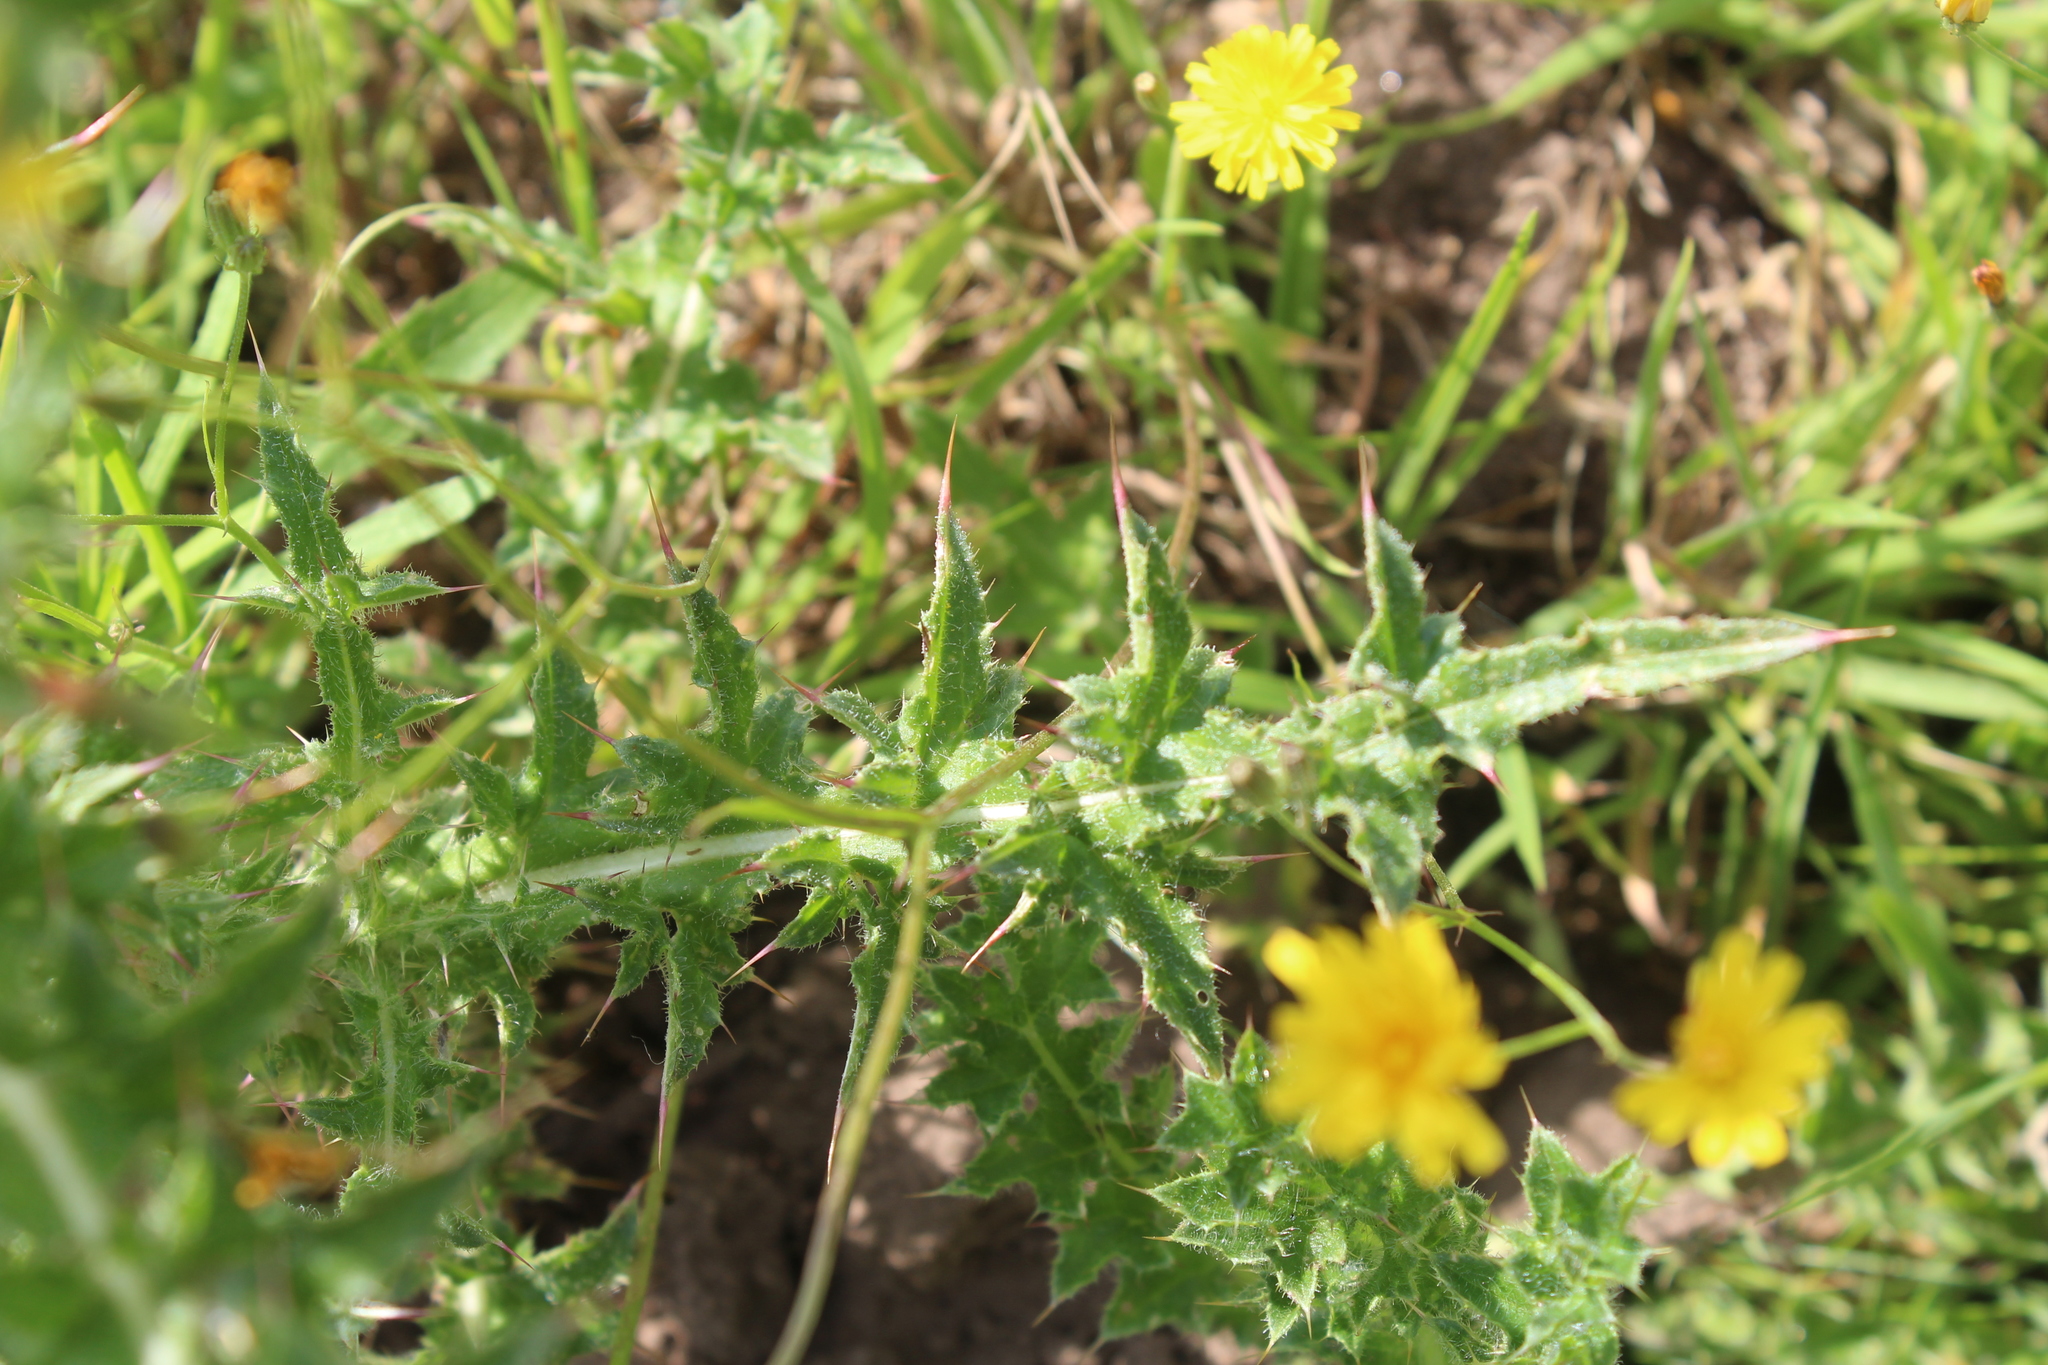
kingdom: Plantae
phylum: Tracheophyta
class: Magnoliopsida
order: Asterales
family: Asteraceae
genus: Carduus
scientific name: Carduus nutans
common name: Musk thistle
